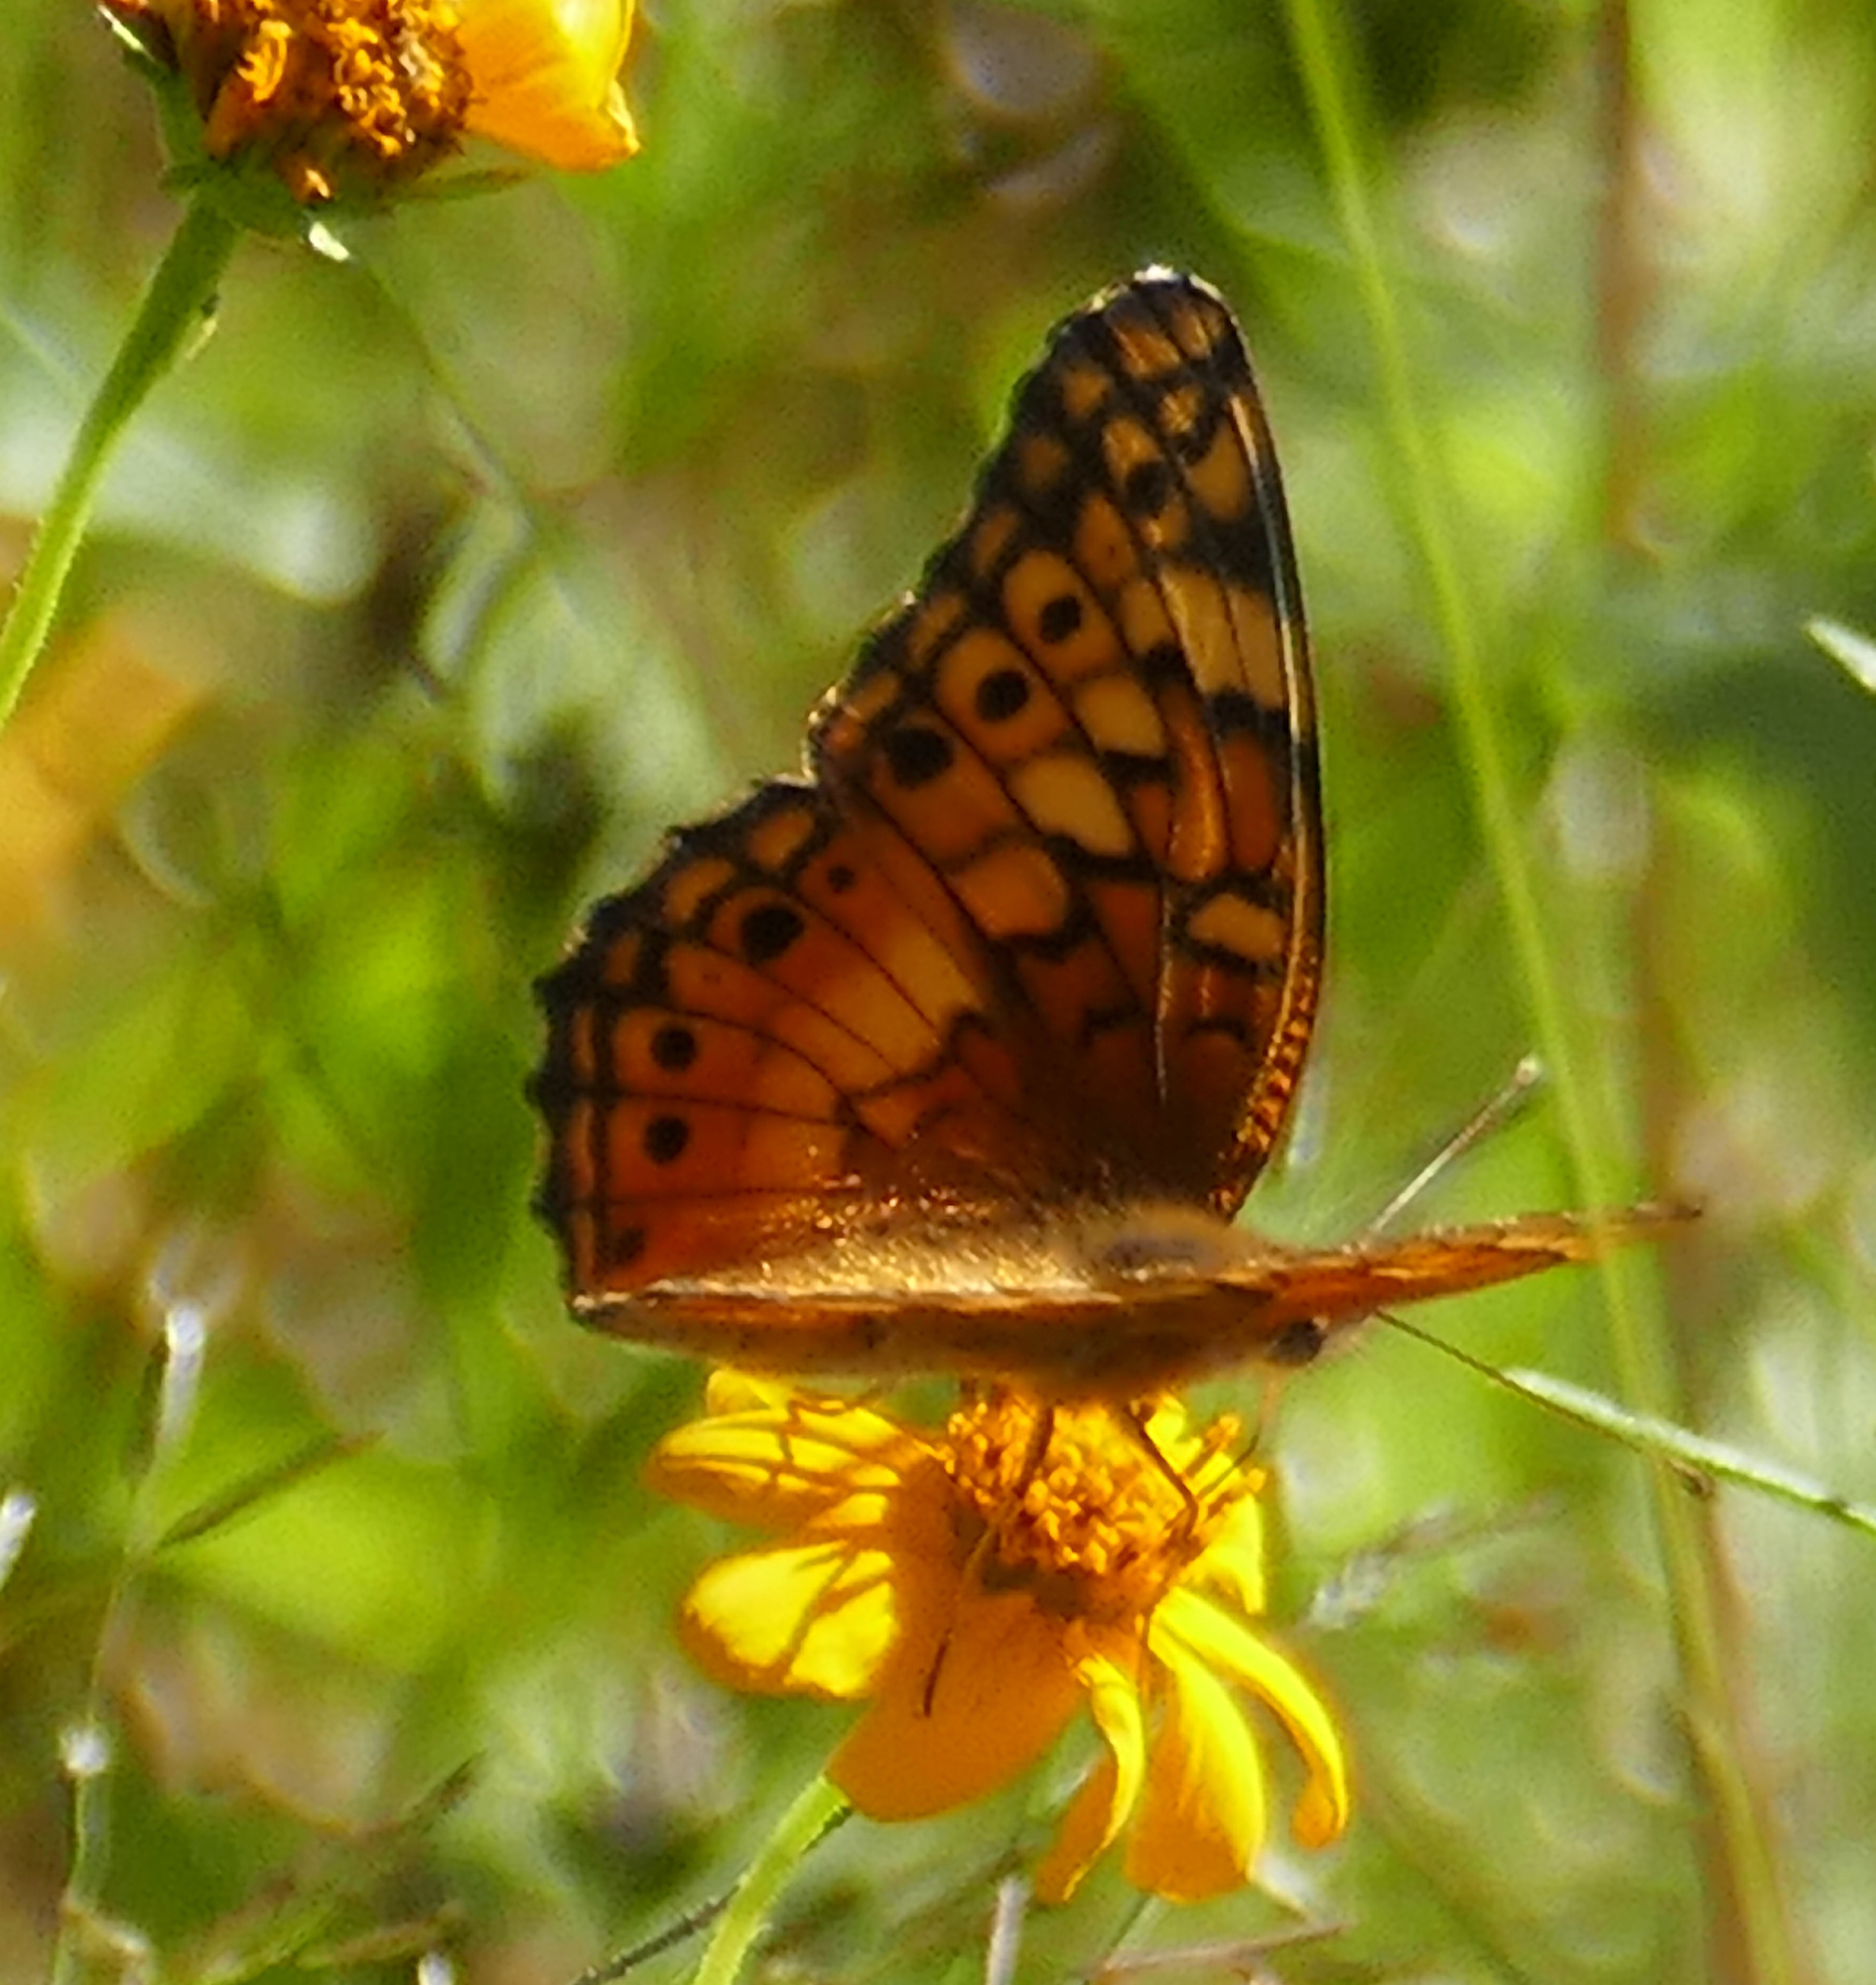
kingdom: Animalia
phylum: Arthropoda
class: Insecta
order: Lepidoptera
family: Nymphalidae
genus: Euptoieta
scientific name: Euptoieta claudia
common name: Variegated fritillary
